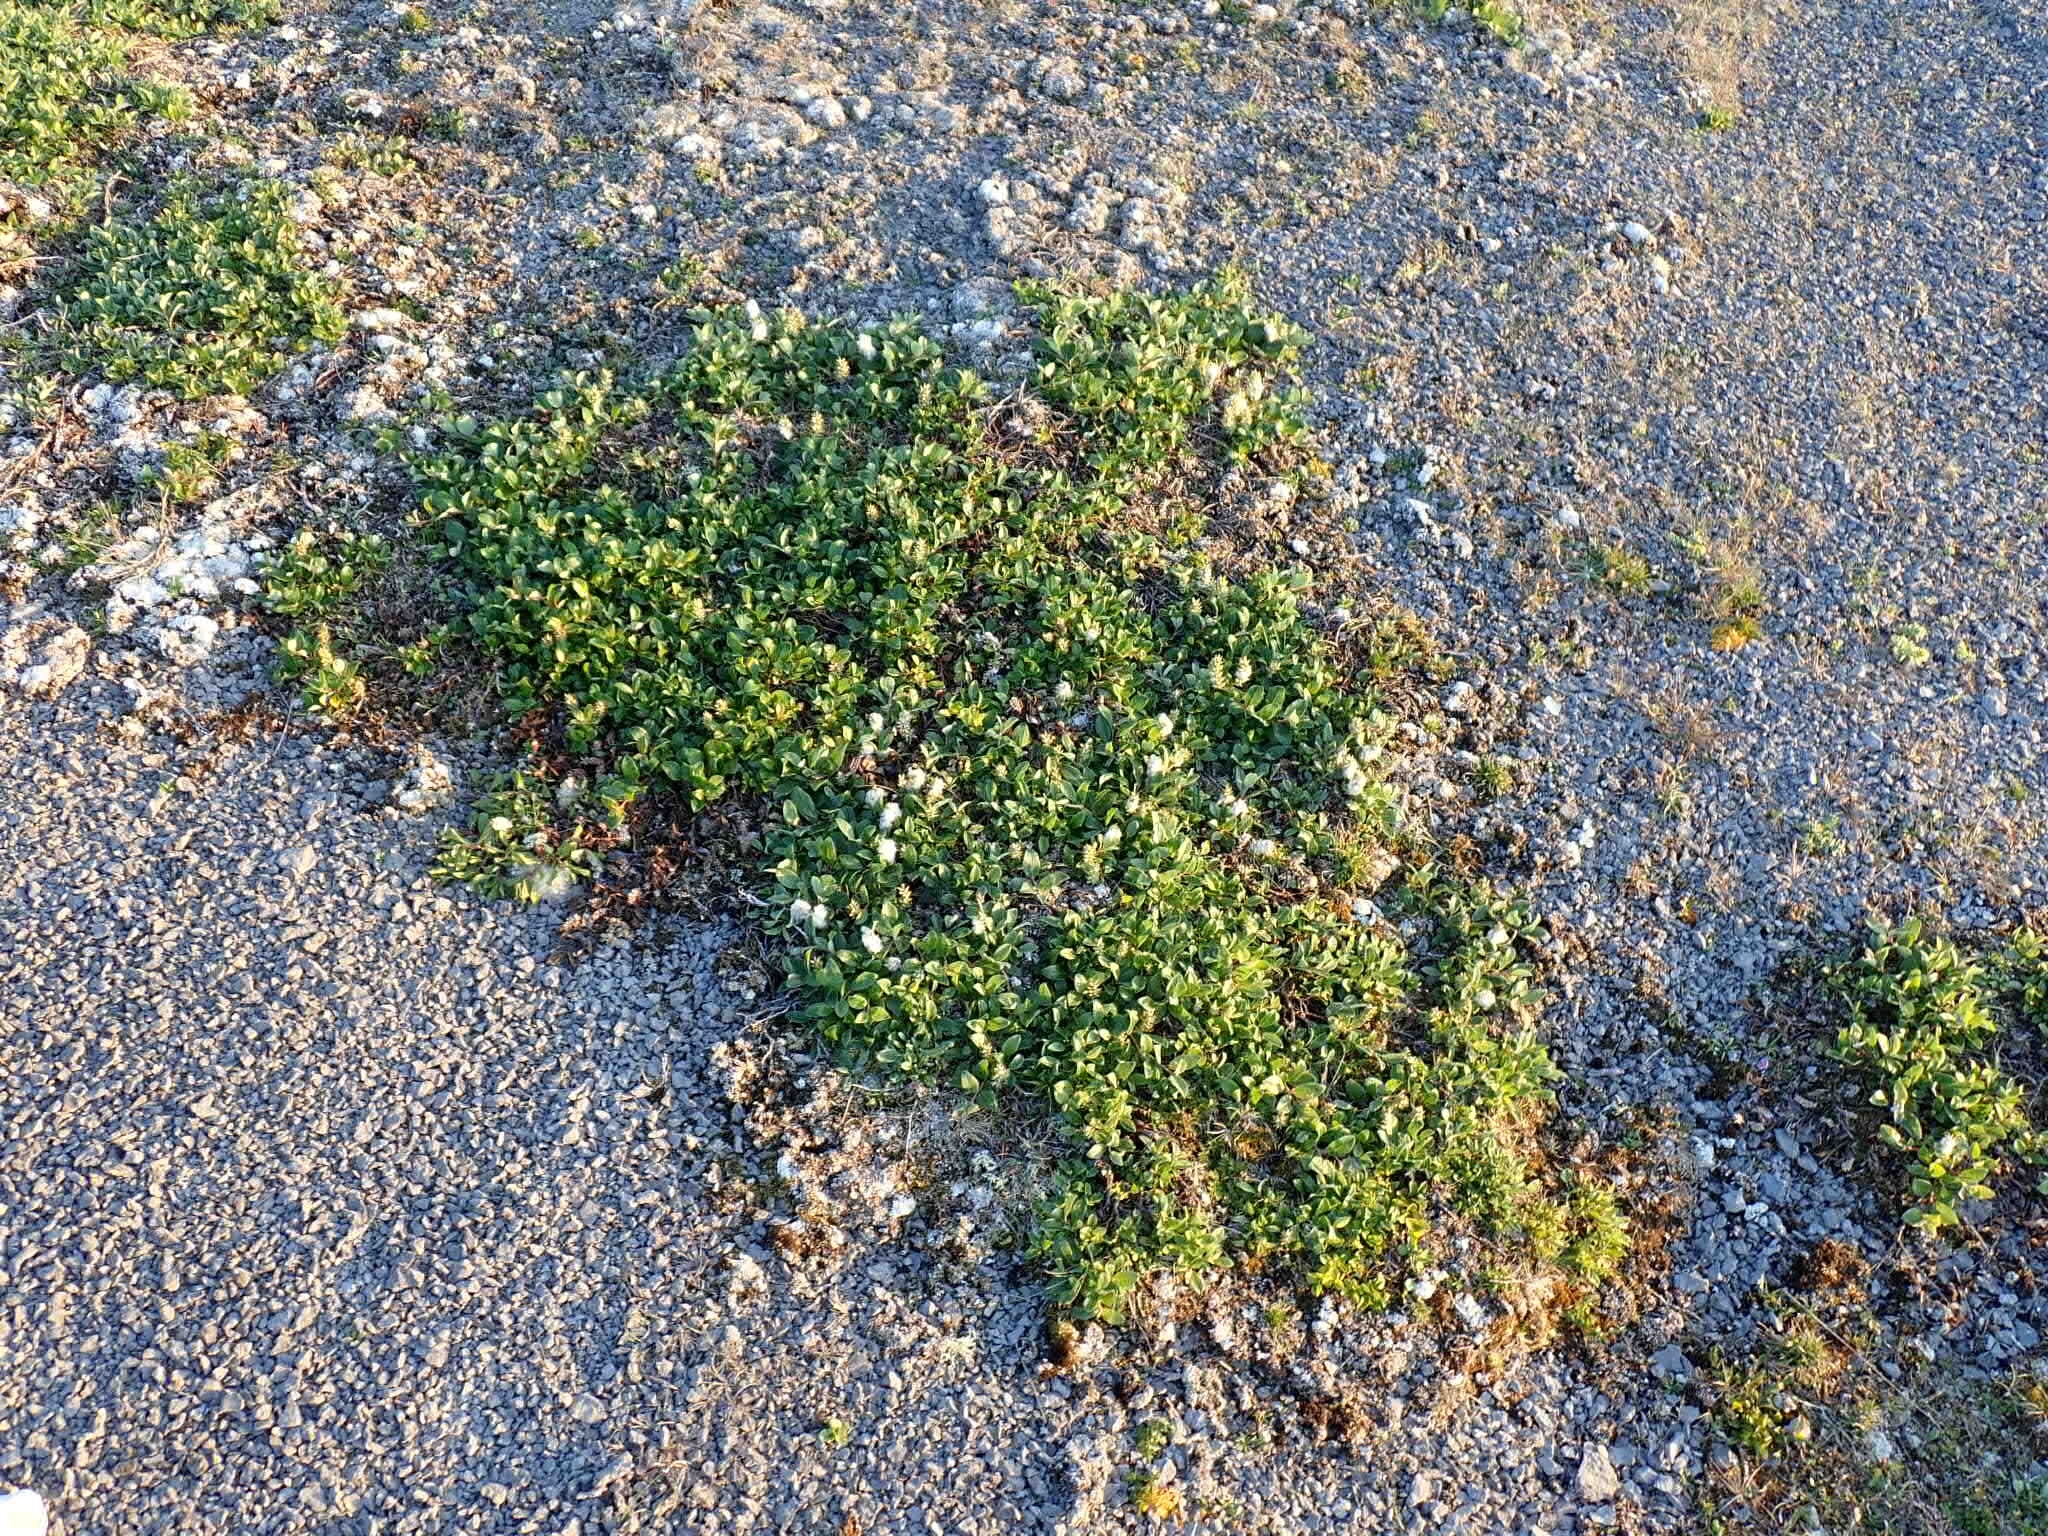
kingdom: Plantae
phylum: Tracheophyta
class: Magnoliopsida
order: Malpighiales
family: Salicaceae
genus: Salix
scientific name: Salix glauca
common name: Glaucous willow
